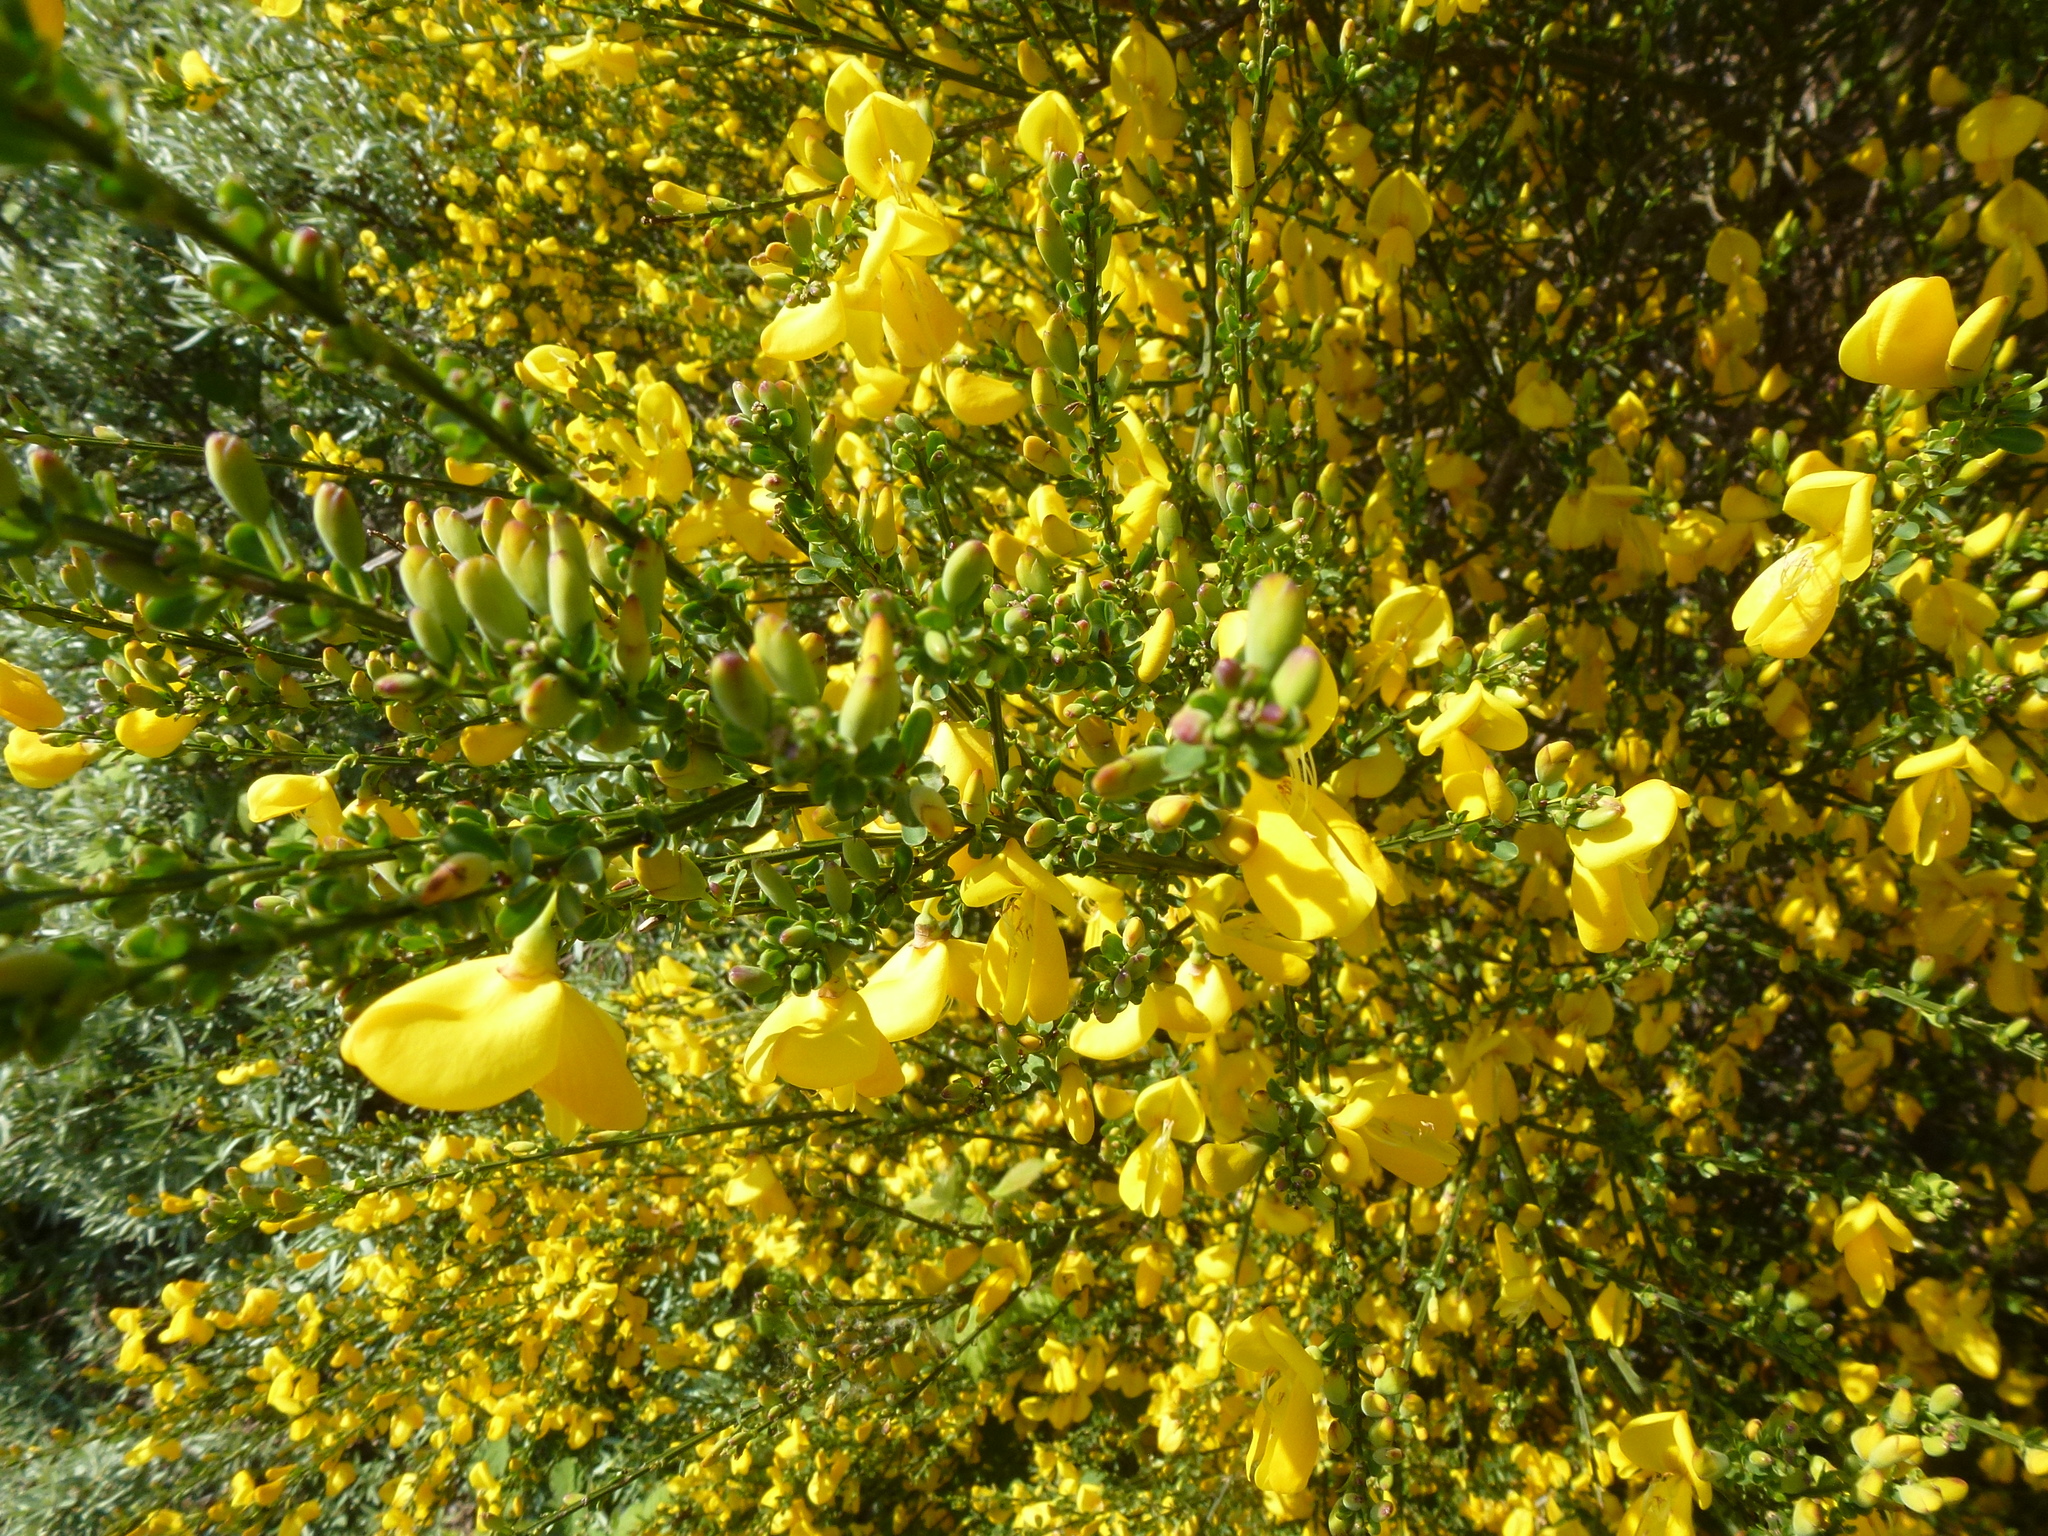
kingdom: Plantae
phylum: Tracheophyta
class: Magnoliopsida
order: Fabales
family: Fabaceae
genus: Cytisus
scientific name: Cytisus scoparius
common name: Scotch broom
